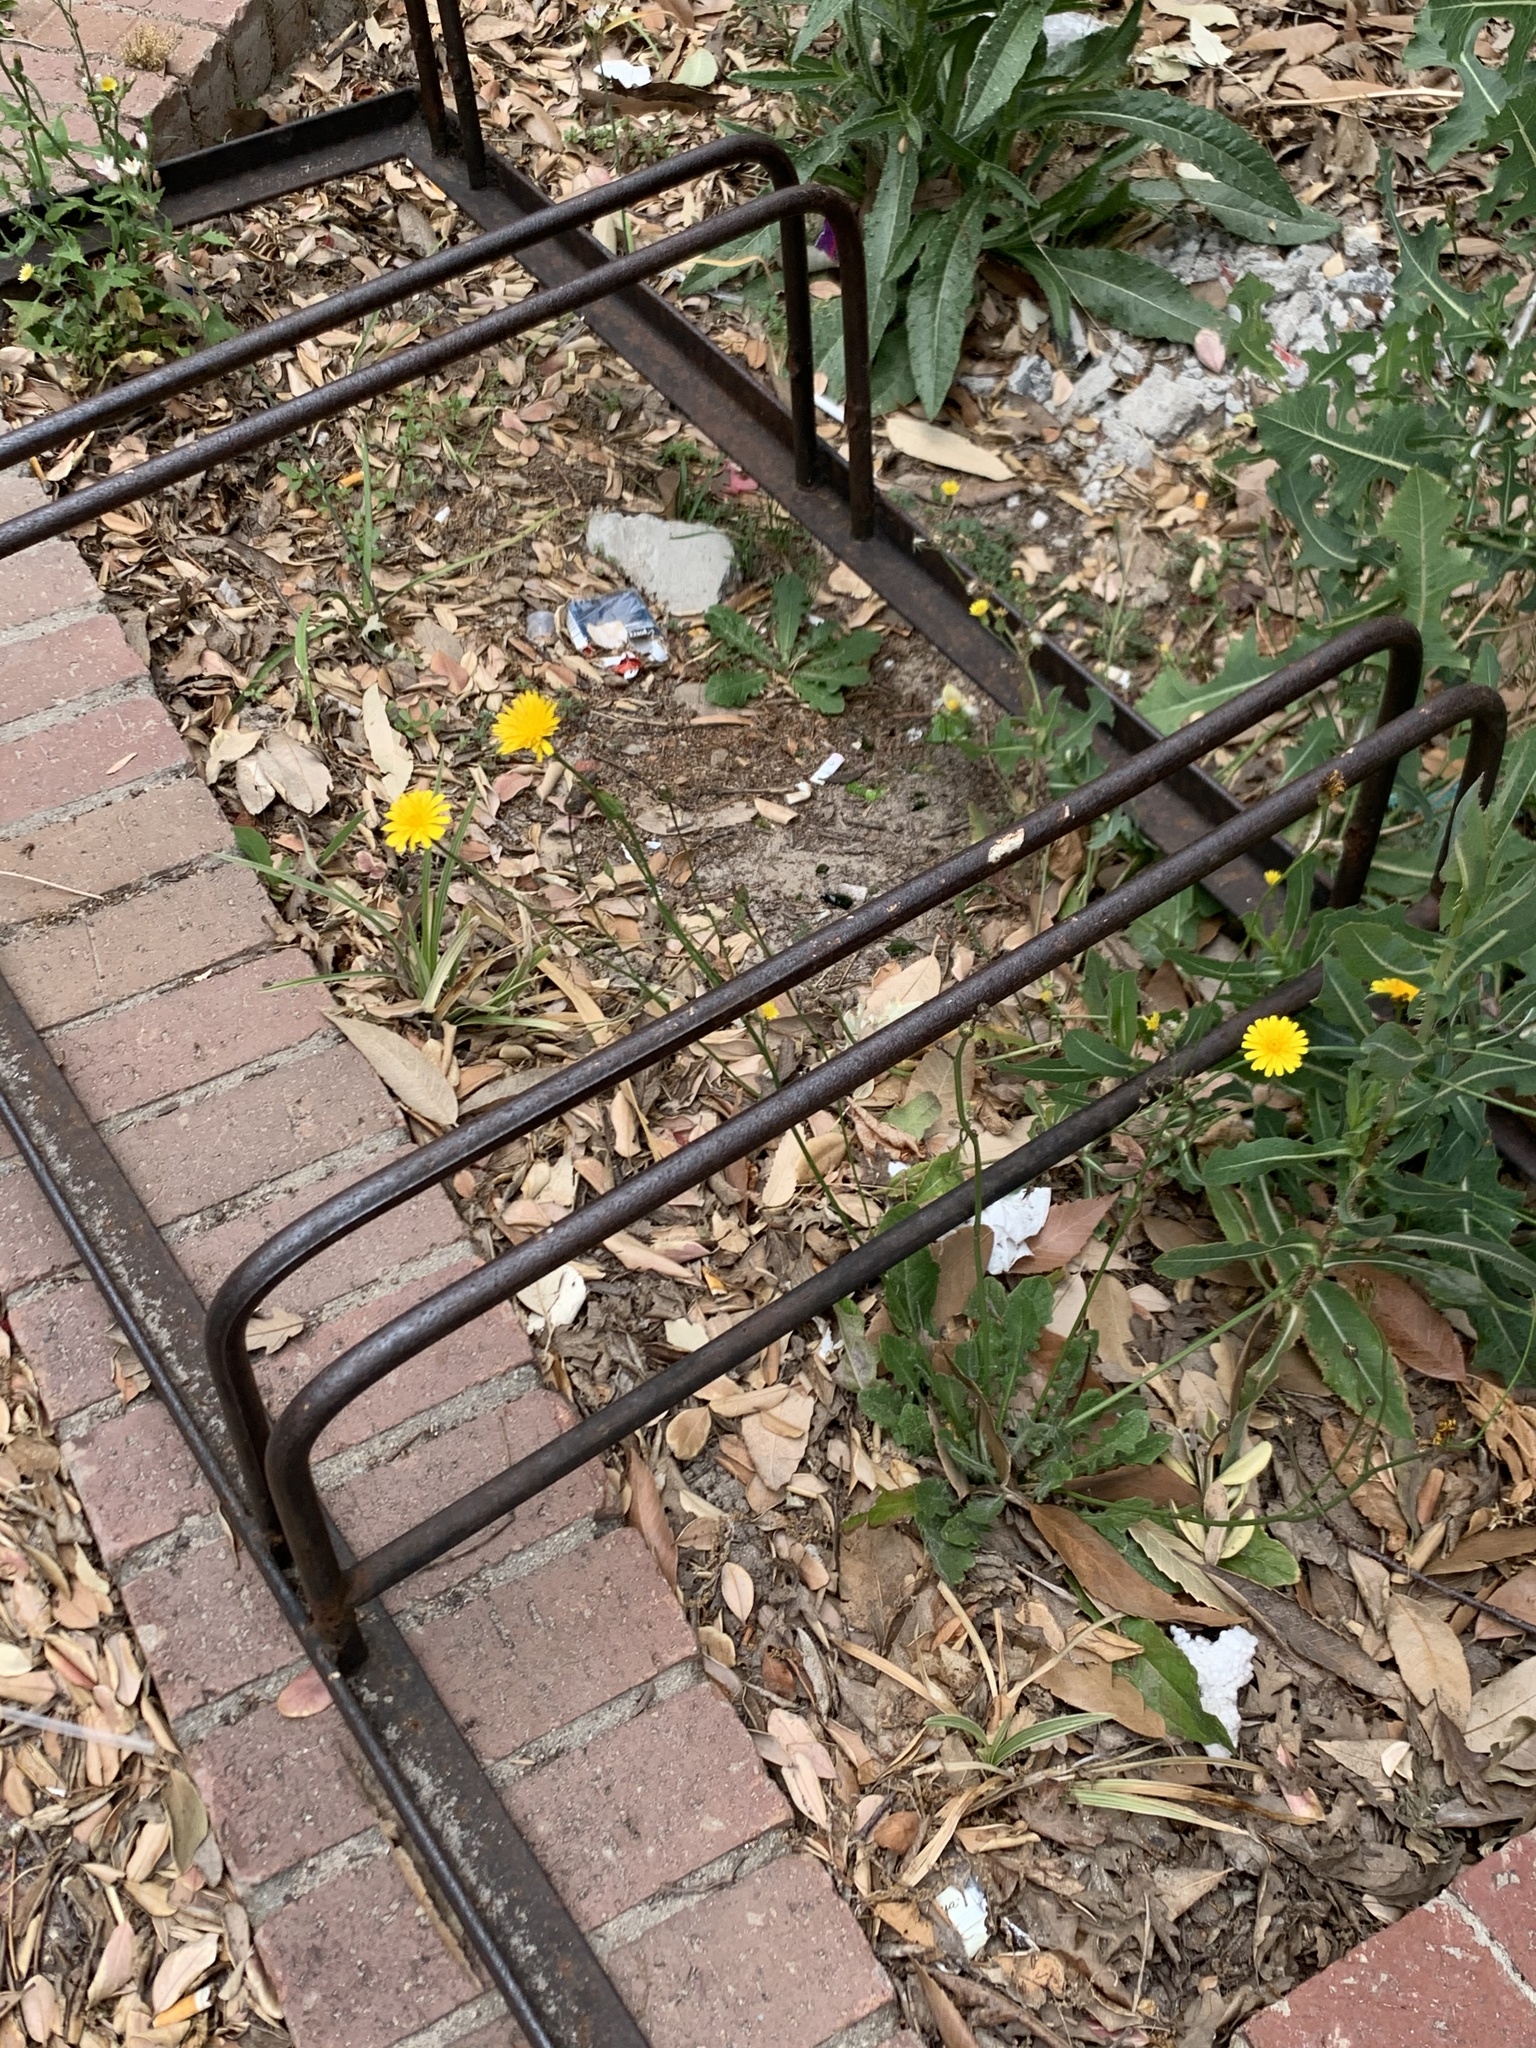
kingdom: Plantae
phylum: Tracheophyta
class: Magnoliopsida
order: Asterales
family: Asteraceae
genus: Hypochaeris
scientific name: Hypochaeris radicata
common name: Flatweed
